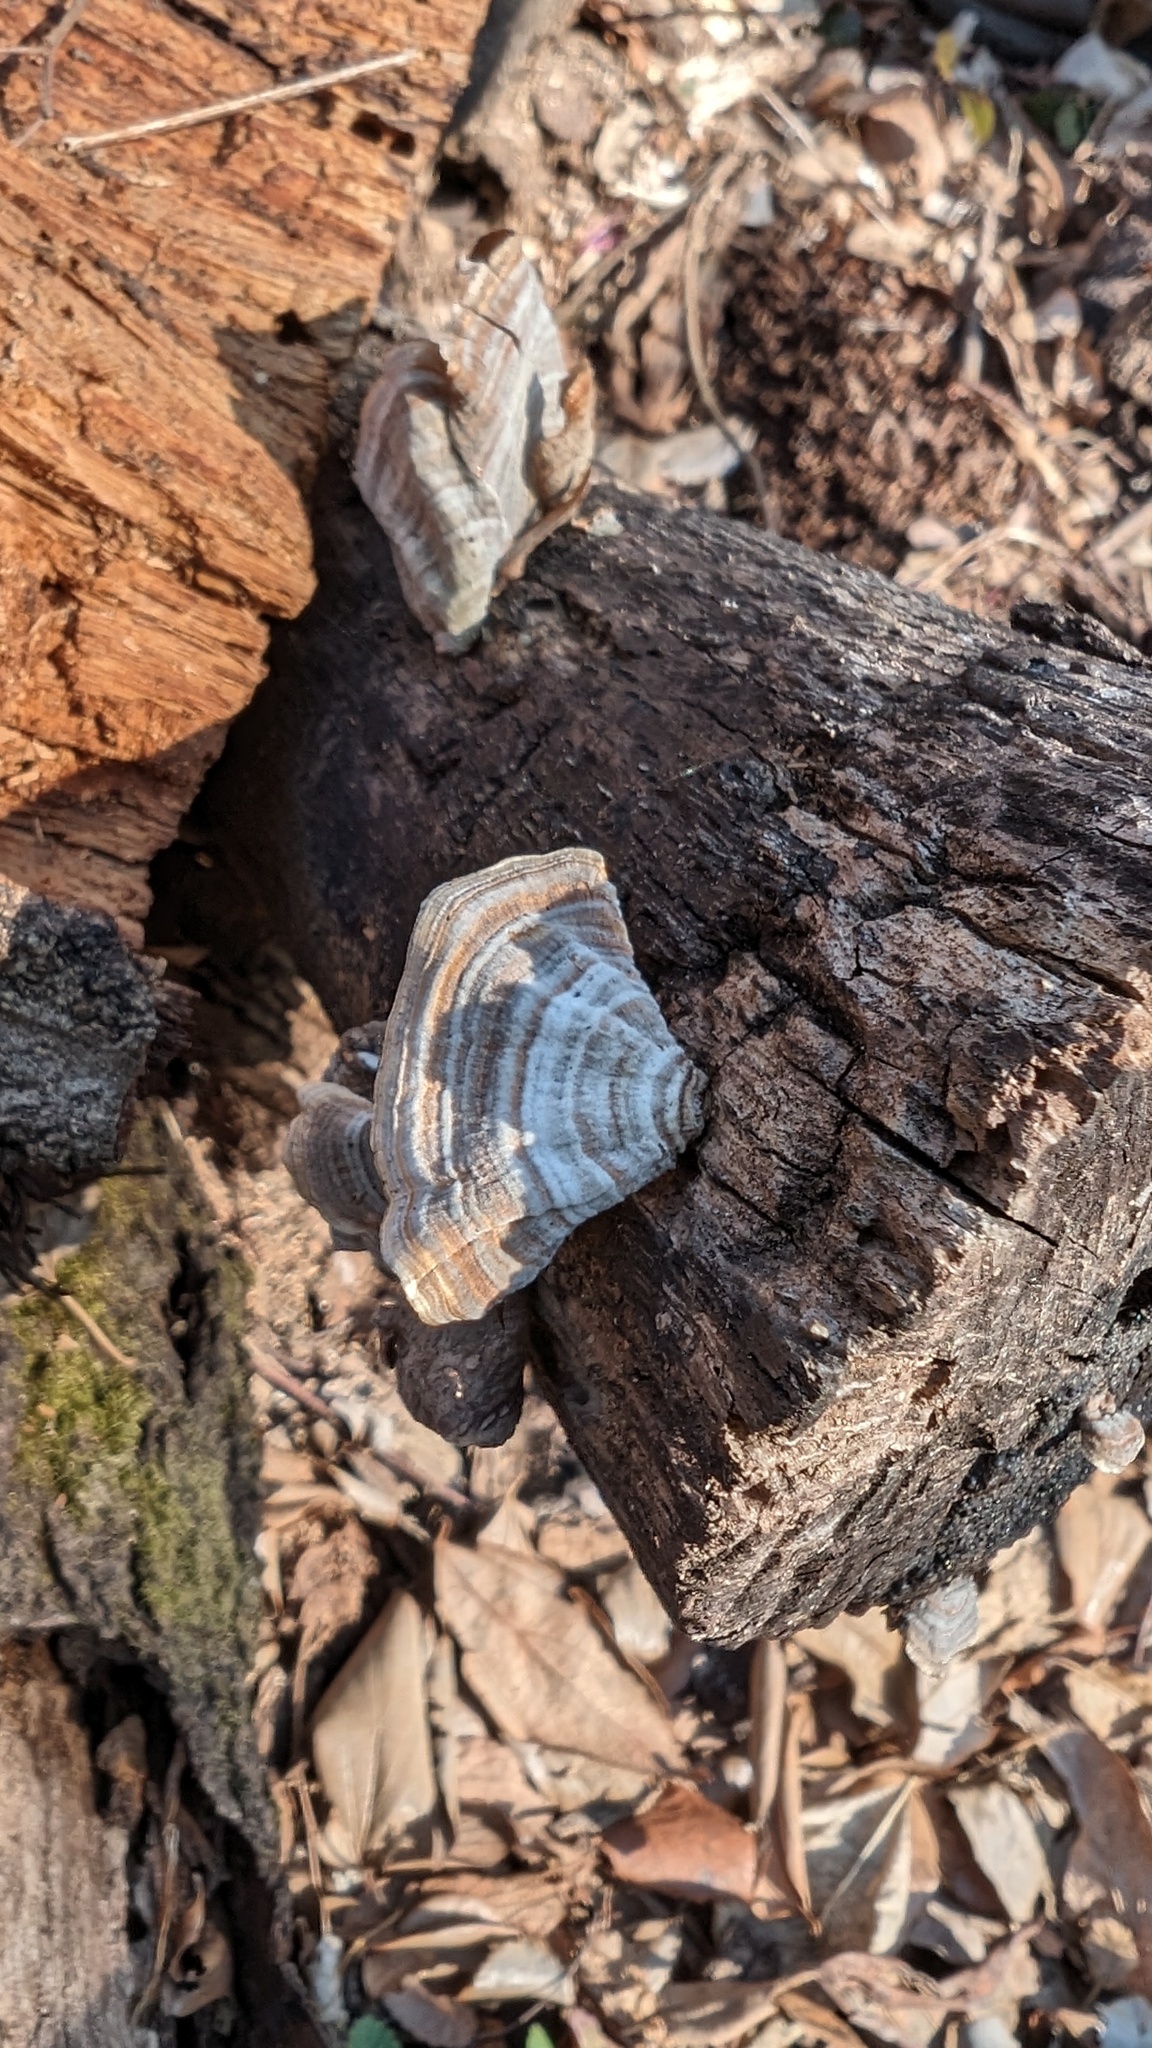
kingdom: Fungi
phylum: Basidiomycota
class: Agaricomycetes
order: Russulales
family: Stereaceae
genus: Stereum
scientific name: Stereum ostrea
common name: False turkeytail
